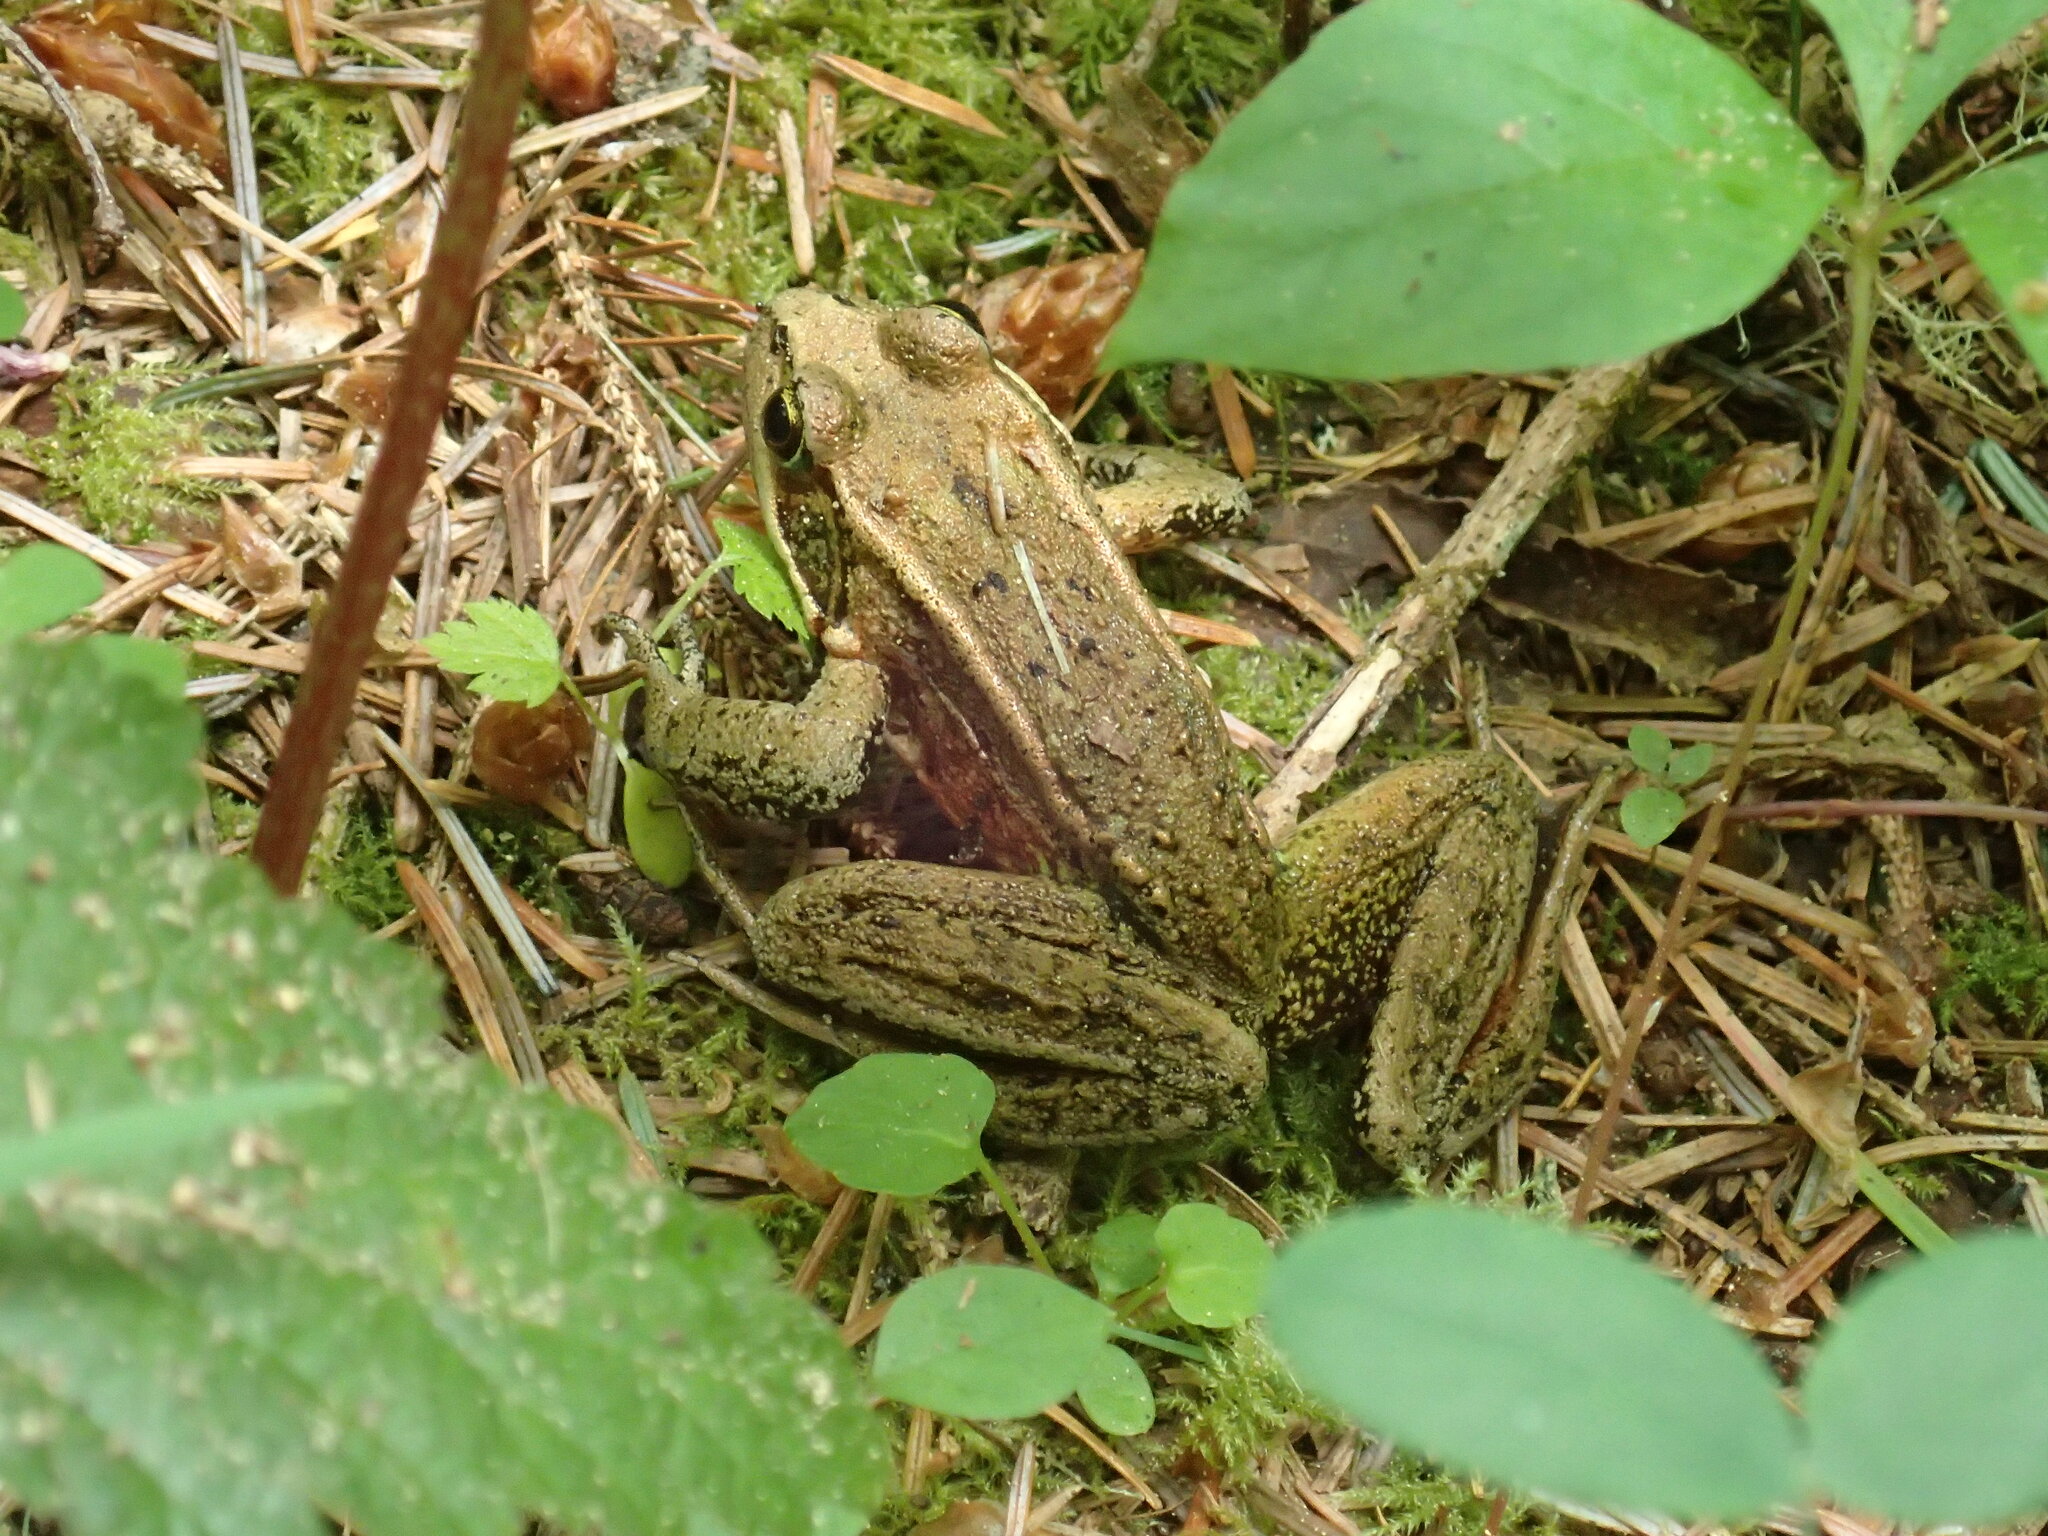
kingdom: Animalia
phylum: Chordata
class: Amphibia
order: Anura
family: Ranidae
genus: Rana
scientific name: Rana aurora
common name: Red-legged frog
